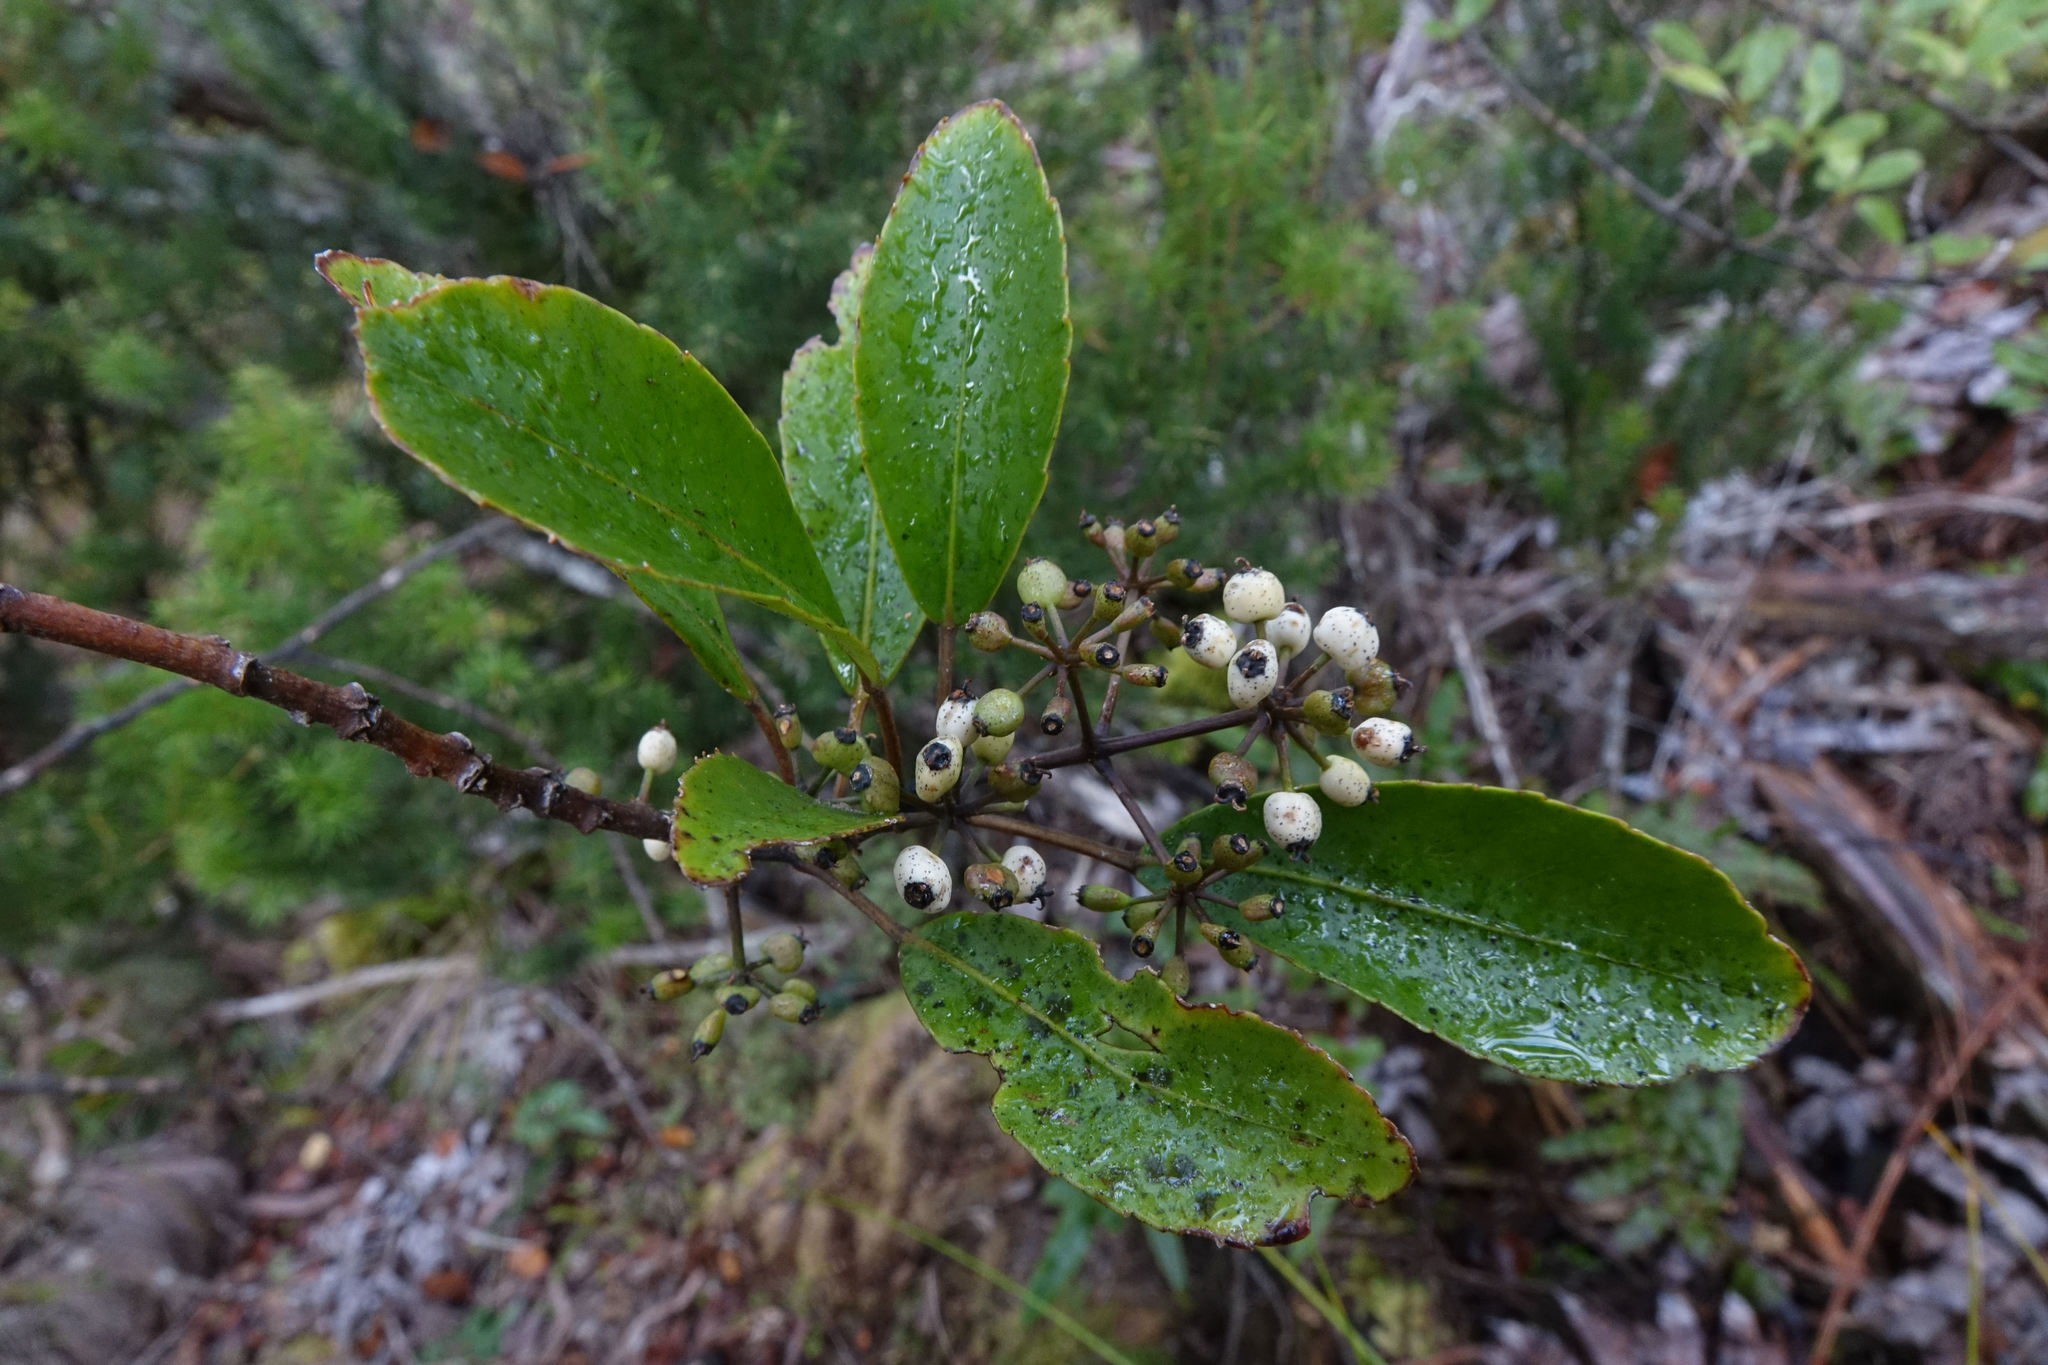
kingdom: Plantae
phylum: Tracheophyta
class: Magnoliopsida
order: Apiales
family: Araliaceae
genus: Raukaua
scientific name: Raukaua simplex
